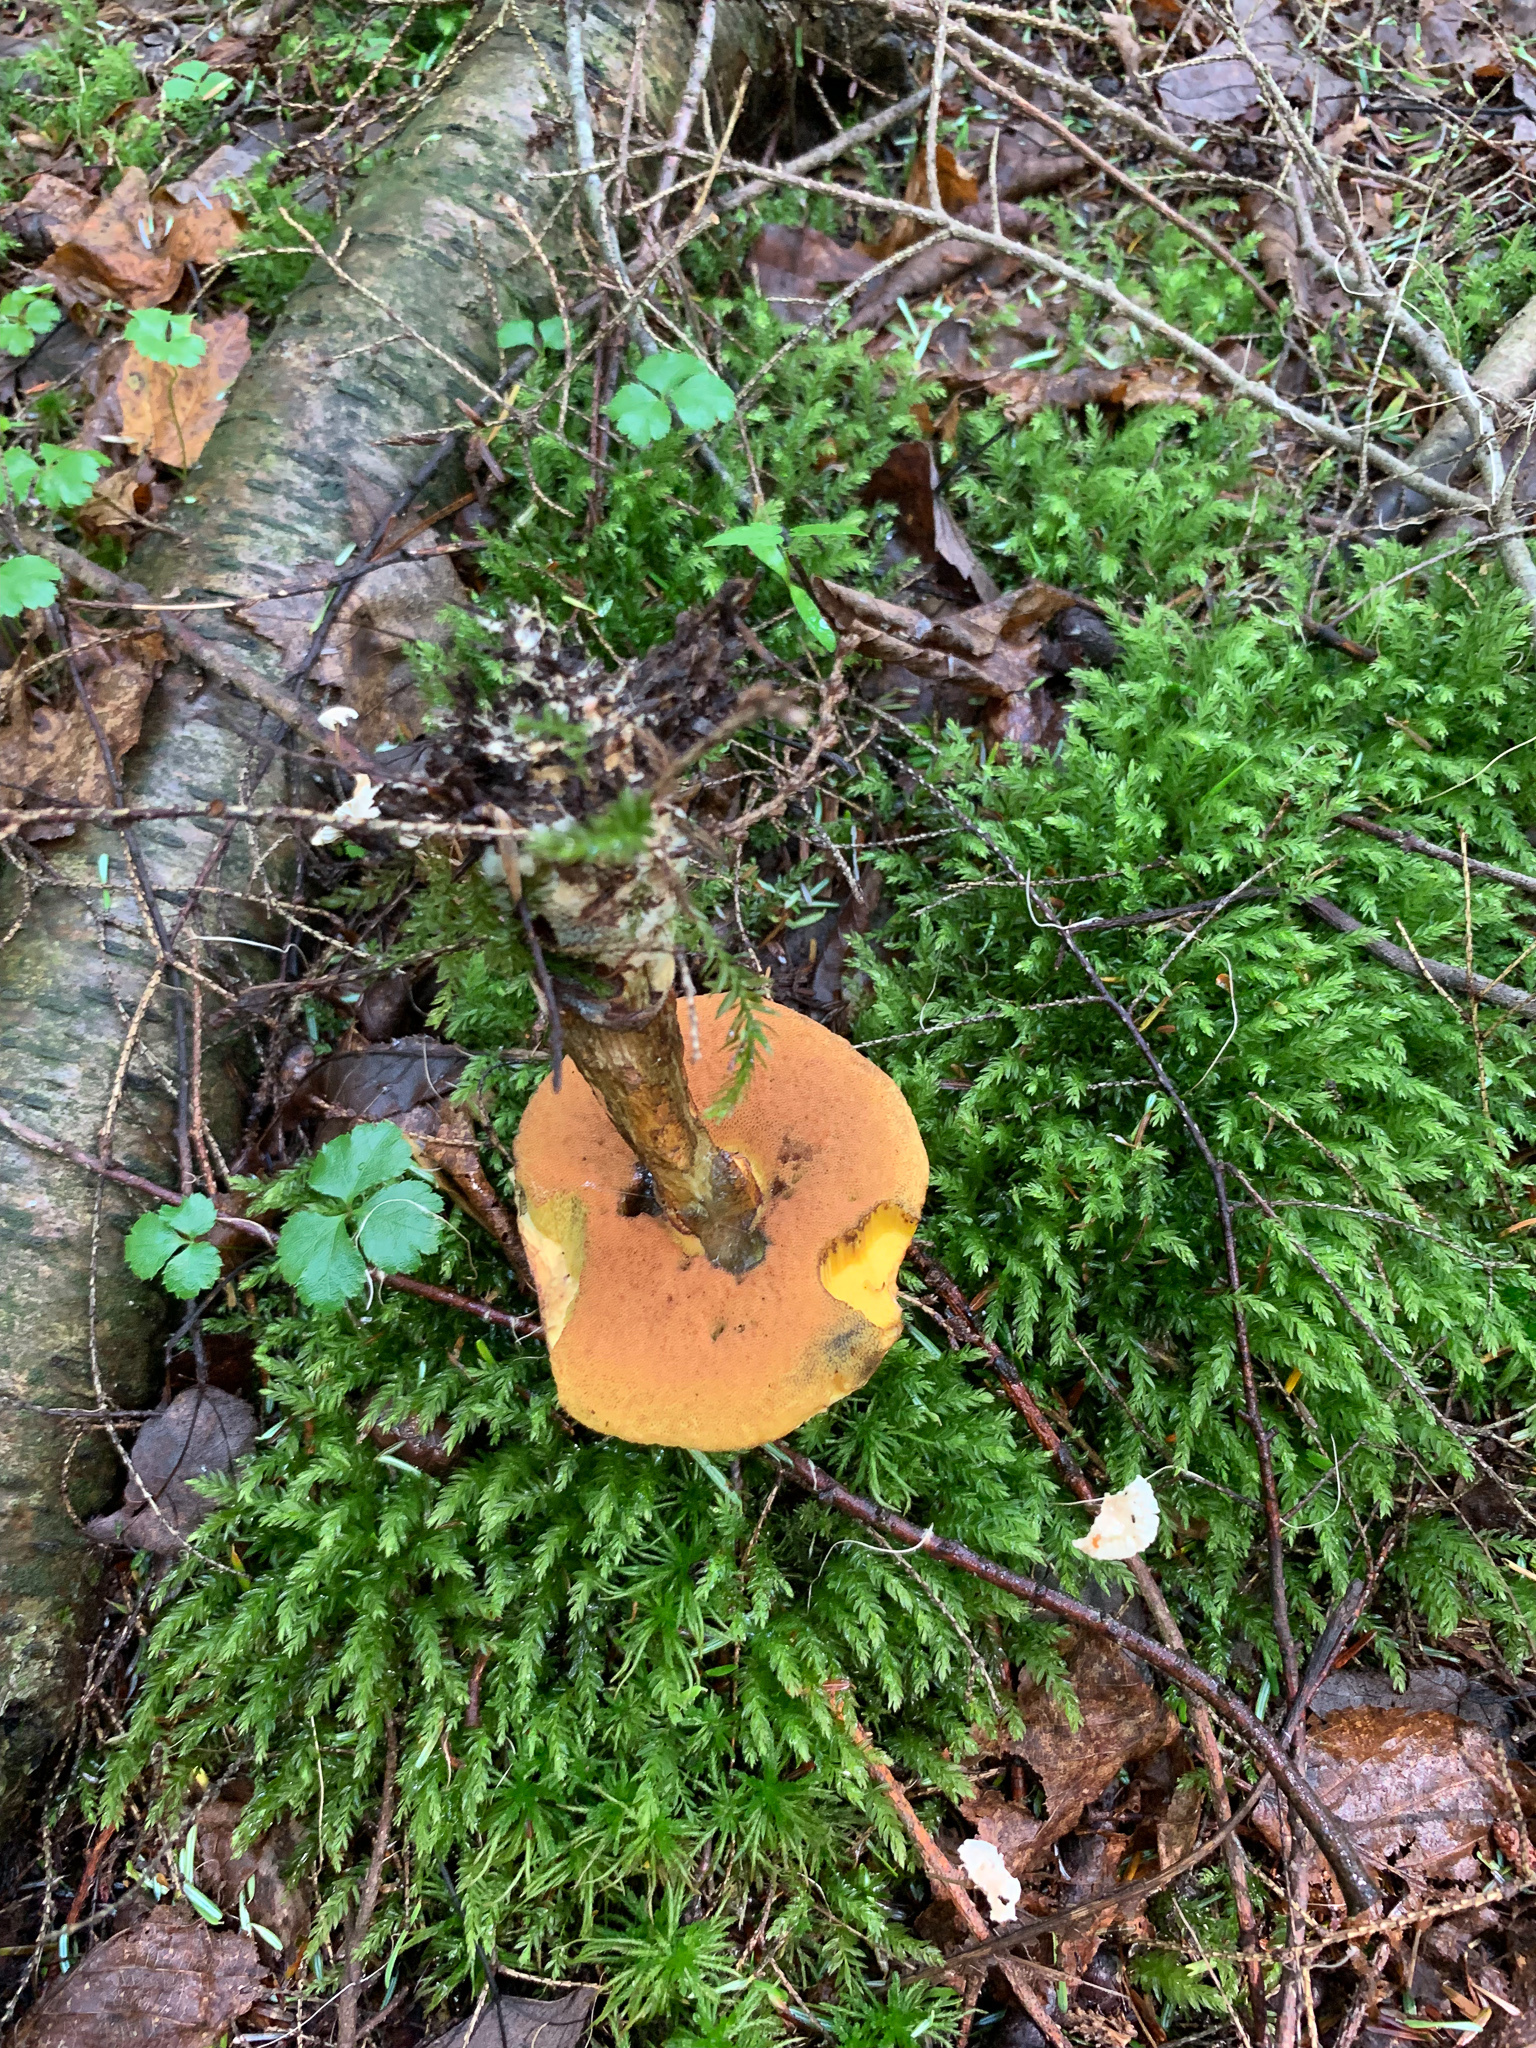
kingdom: Fungi
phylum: Basidiomycota
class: Agaricomycetes
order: Boletales
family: Boletaceae
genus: Boletus
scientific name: Boletus subvelutipes
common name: Red-mouth bolete
